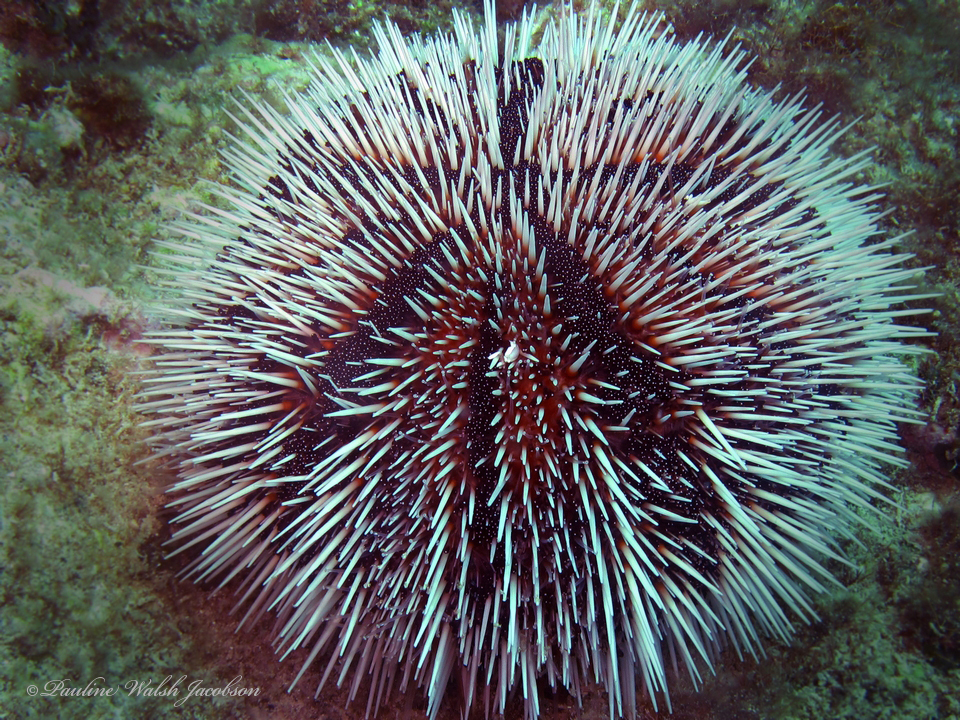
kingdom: Animalia
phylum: Echinodermata
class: Echinoidea
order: Camarodonta
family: Toxopneustidae
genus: Tripneustes
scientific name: Tripneustes ventricosus
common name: West indian sea egg
